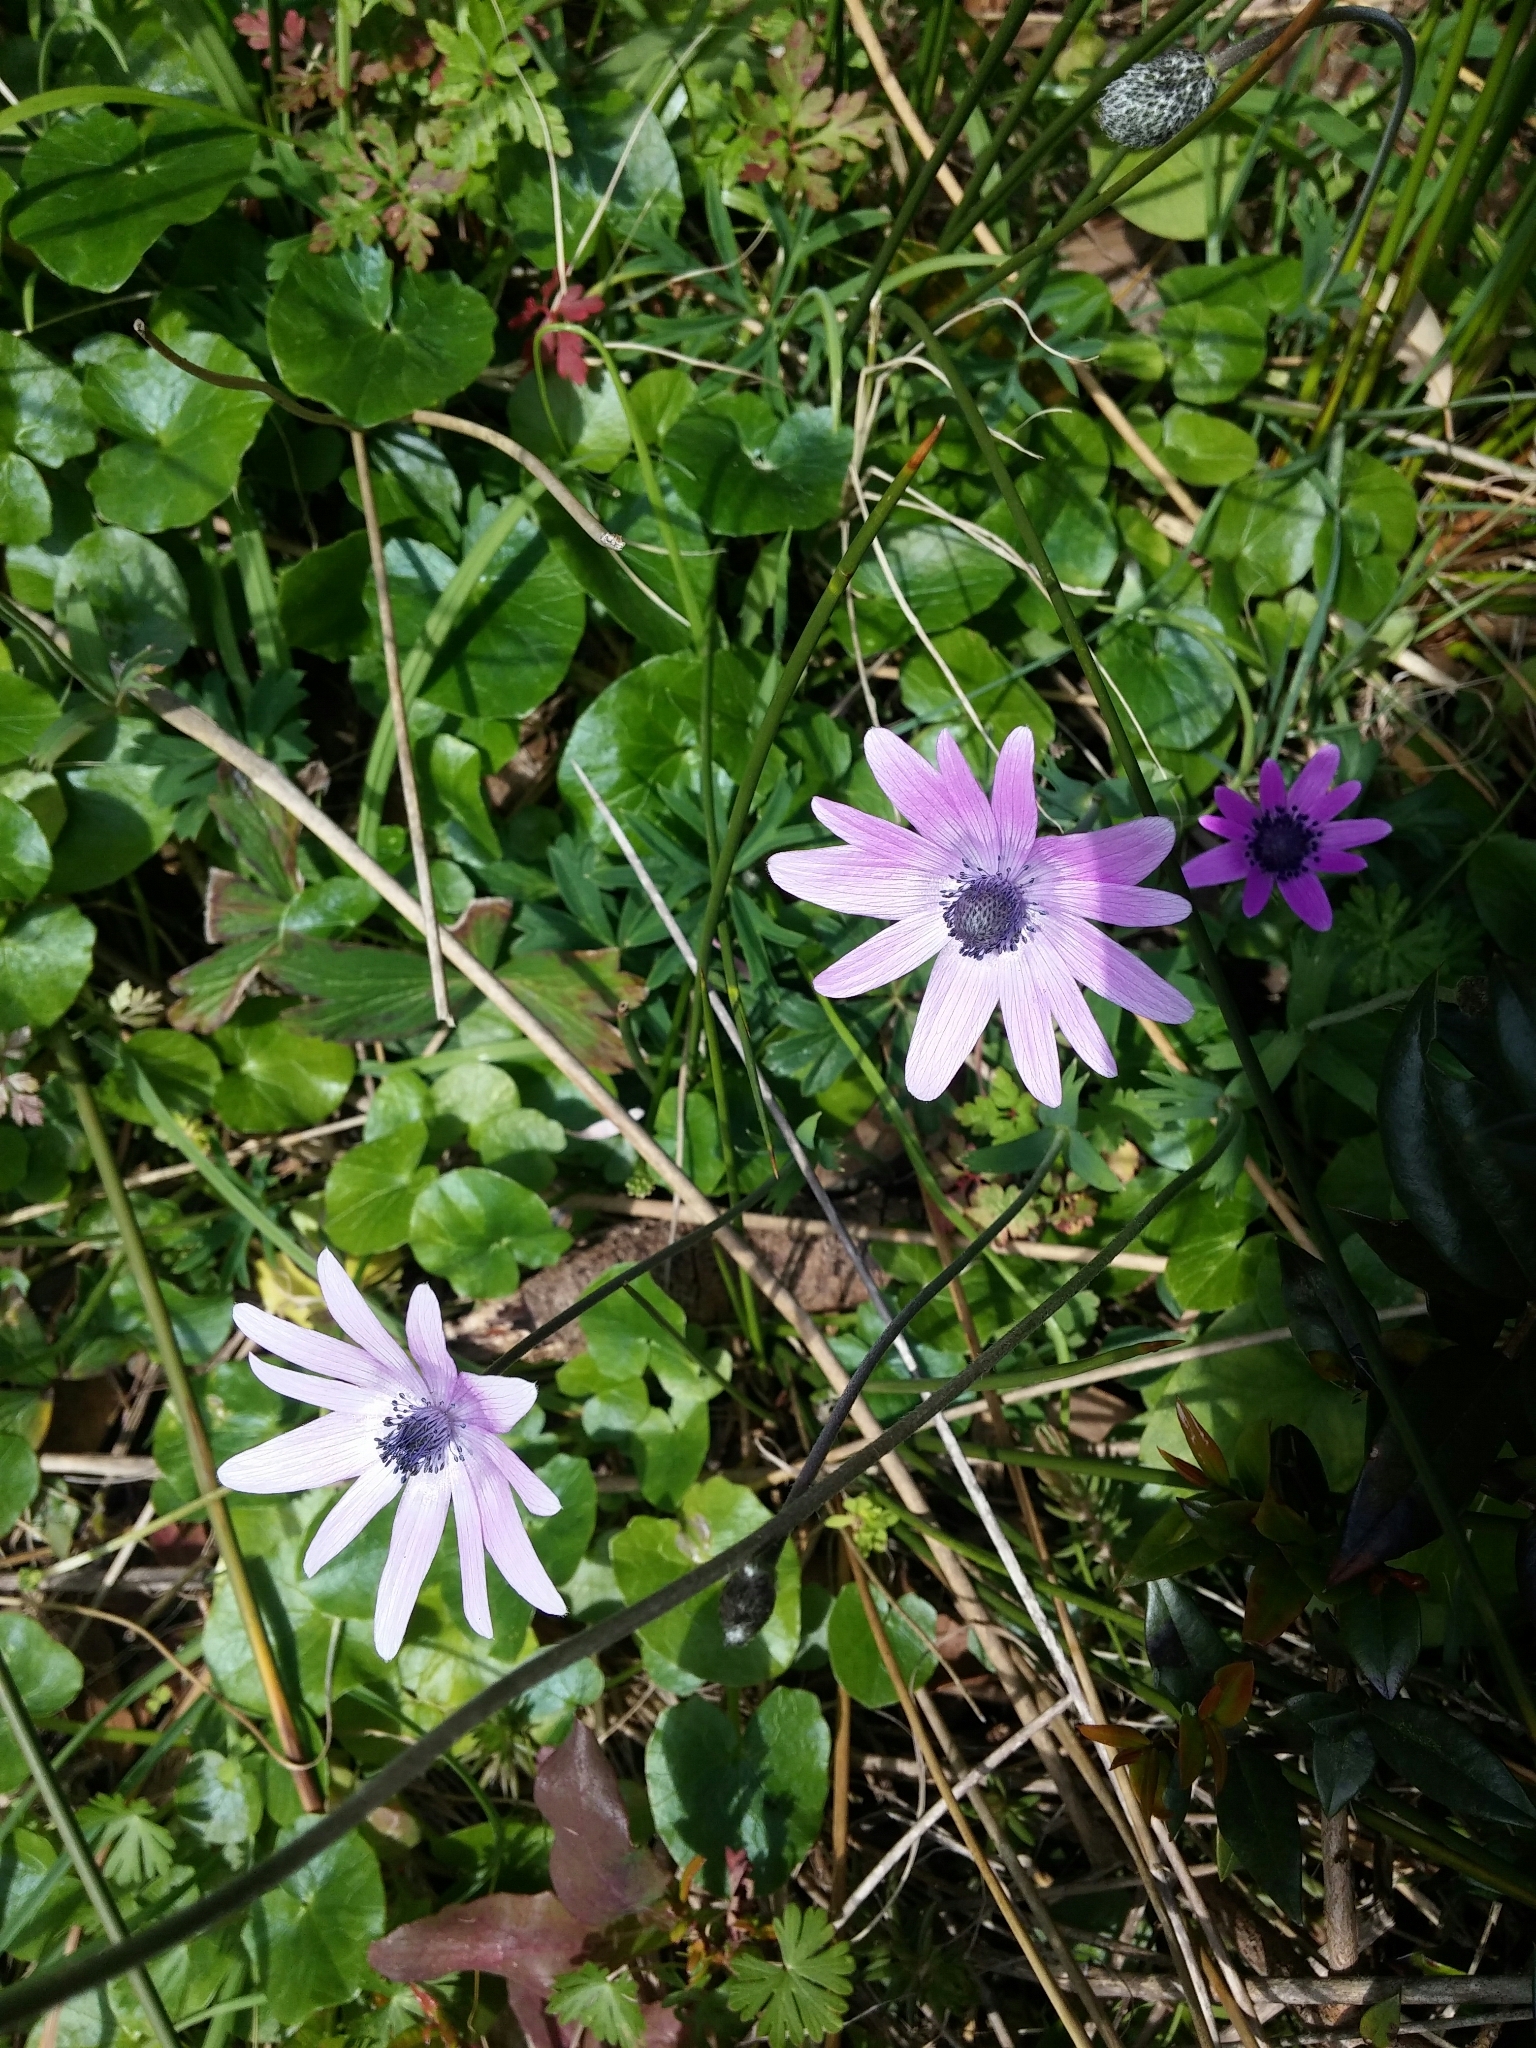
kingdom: Plantae
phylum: Tracheophyta
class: Magnoliopsida
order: Ranunculales
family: Ranunculaceae
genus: Anemone
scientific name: Anemone hortensis
